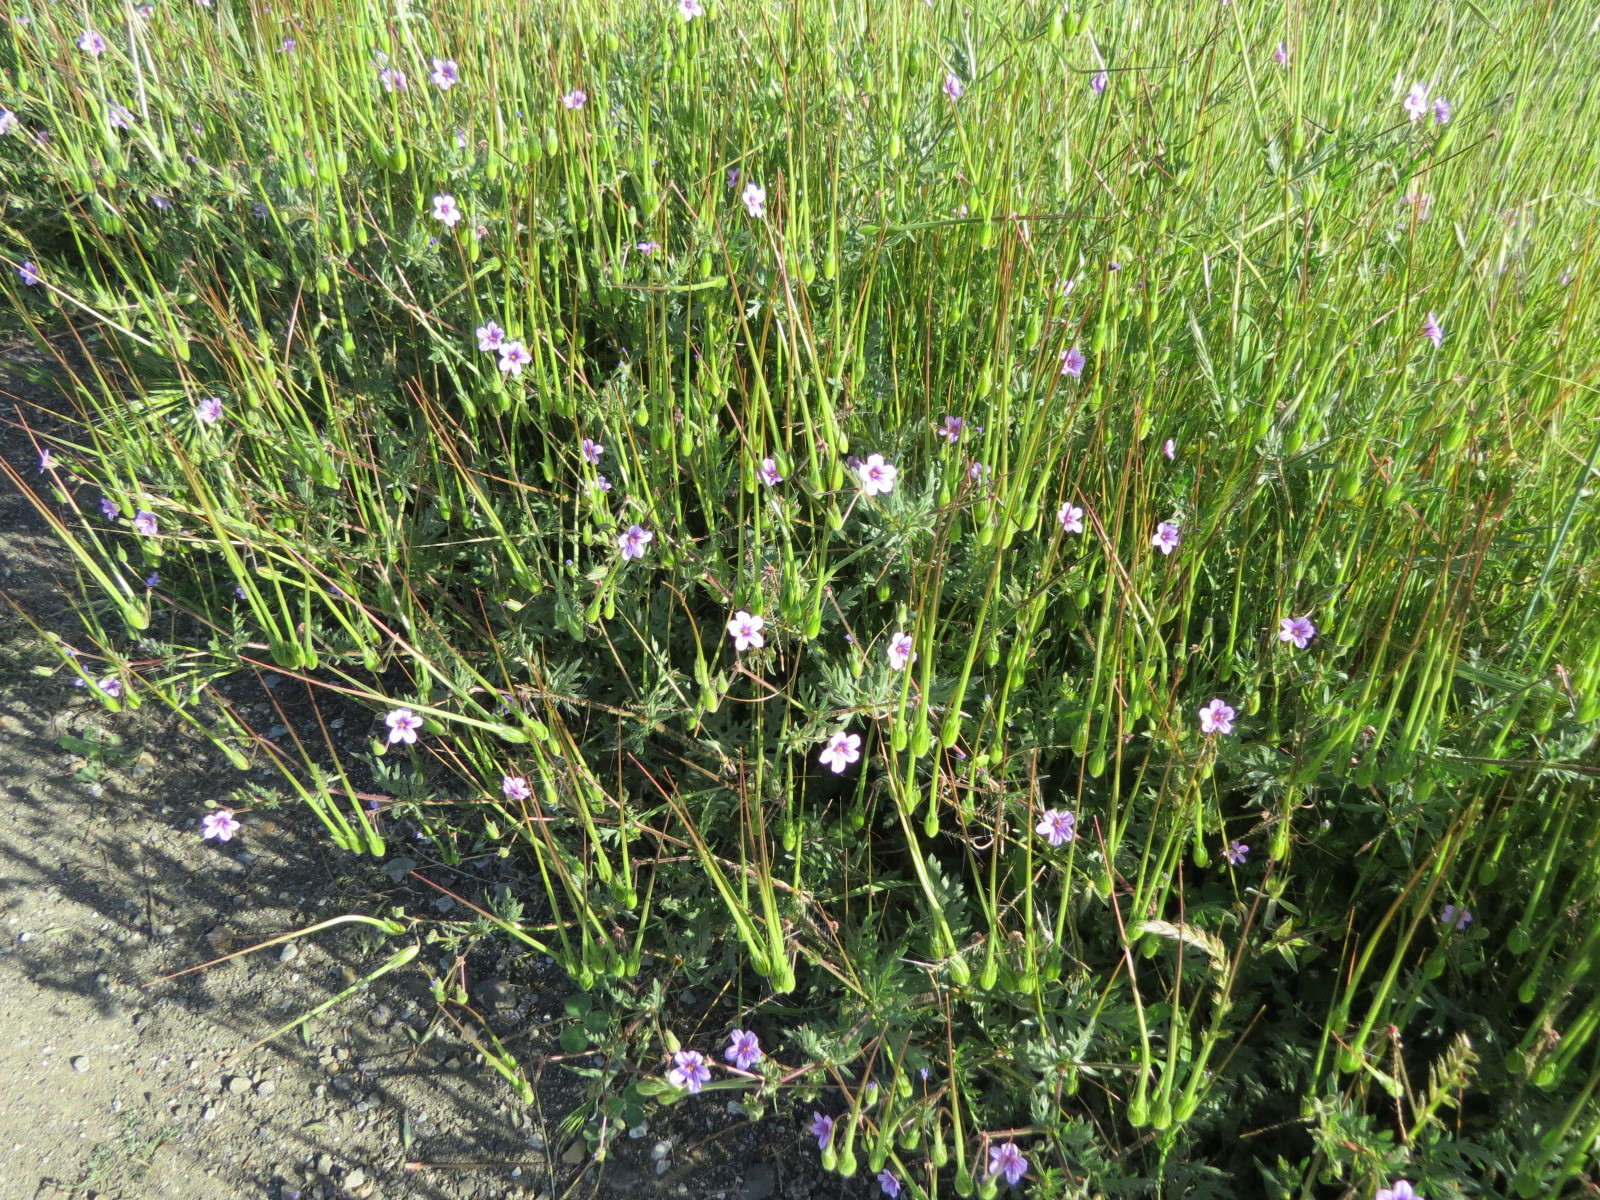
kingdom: Plantae
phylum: Tracheophyta
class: Magnoliopsida
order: Geraniales
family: Geraniaceae
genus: Erodium
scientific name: Erodium botrys
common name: Mediterranean stork's-bill
